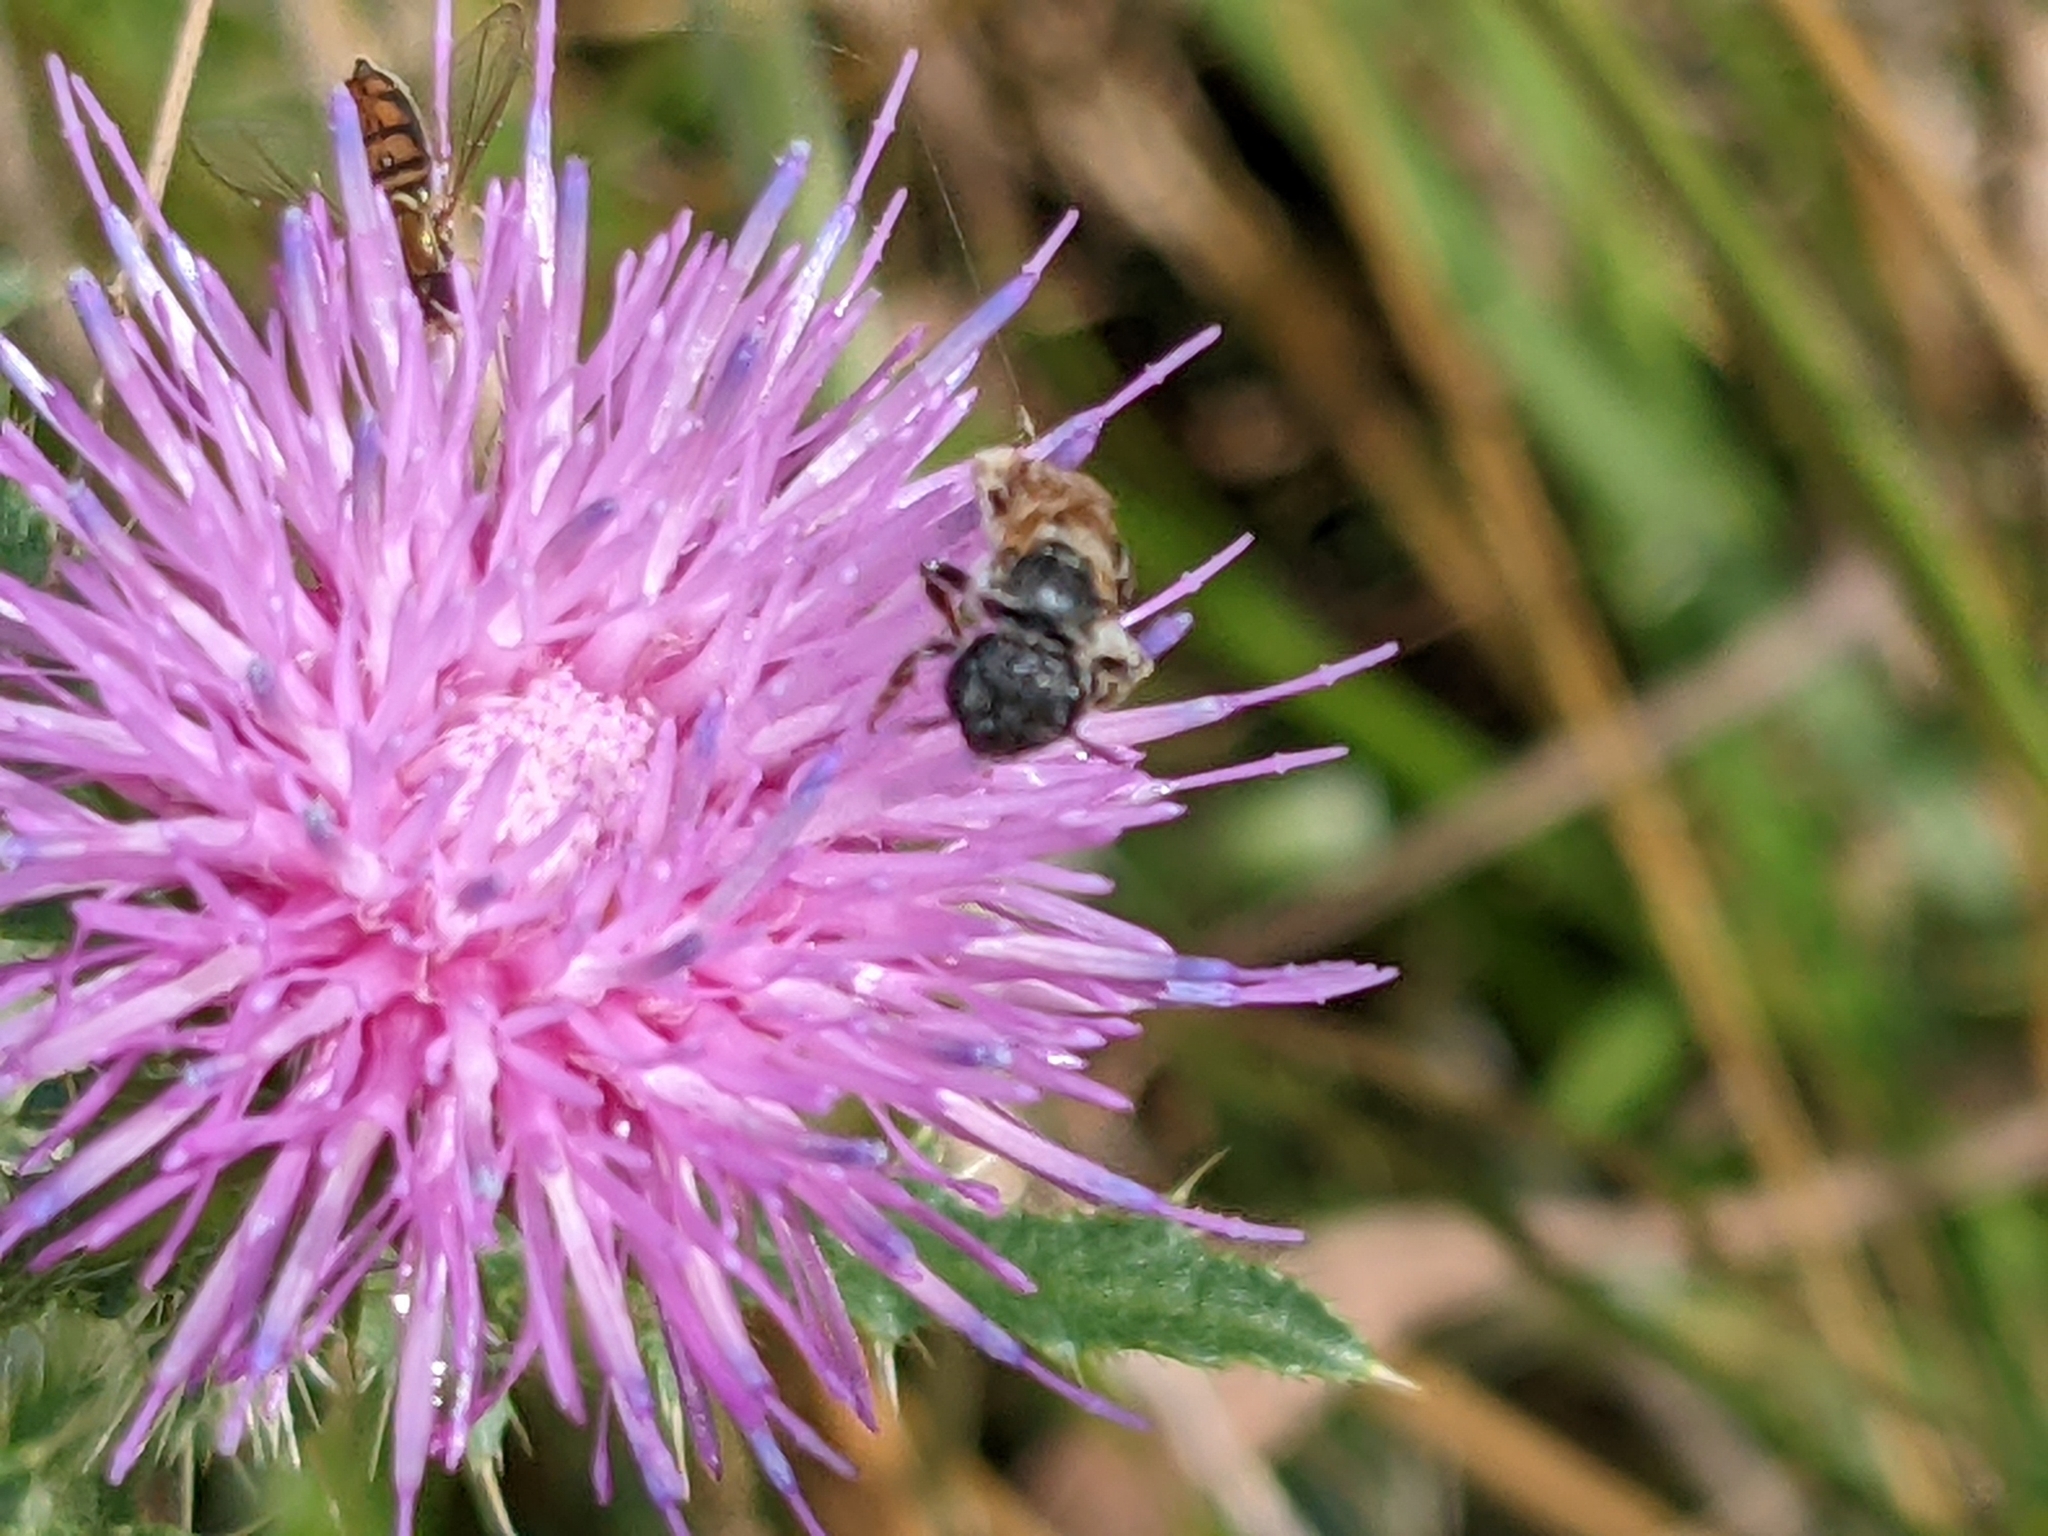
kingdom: Animalia
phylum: Arthropoda
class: Insecta
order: Hymenoptera
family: Halictidae
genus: Halictus
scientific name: Halictus ligatus
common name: Ligated furrow bee
